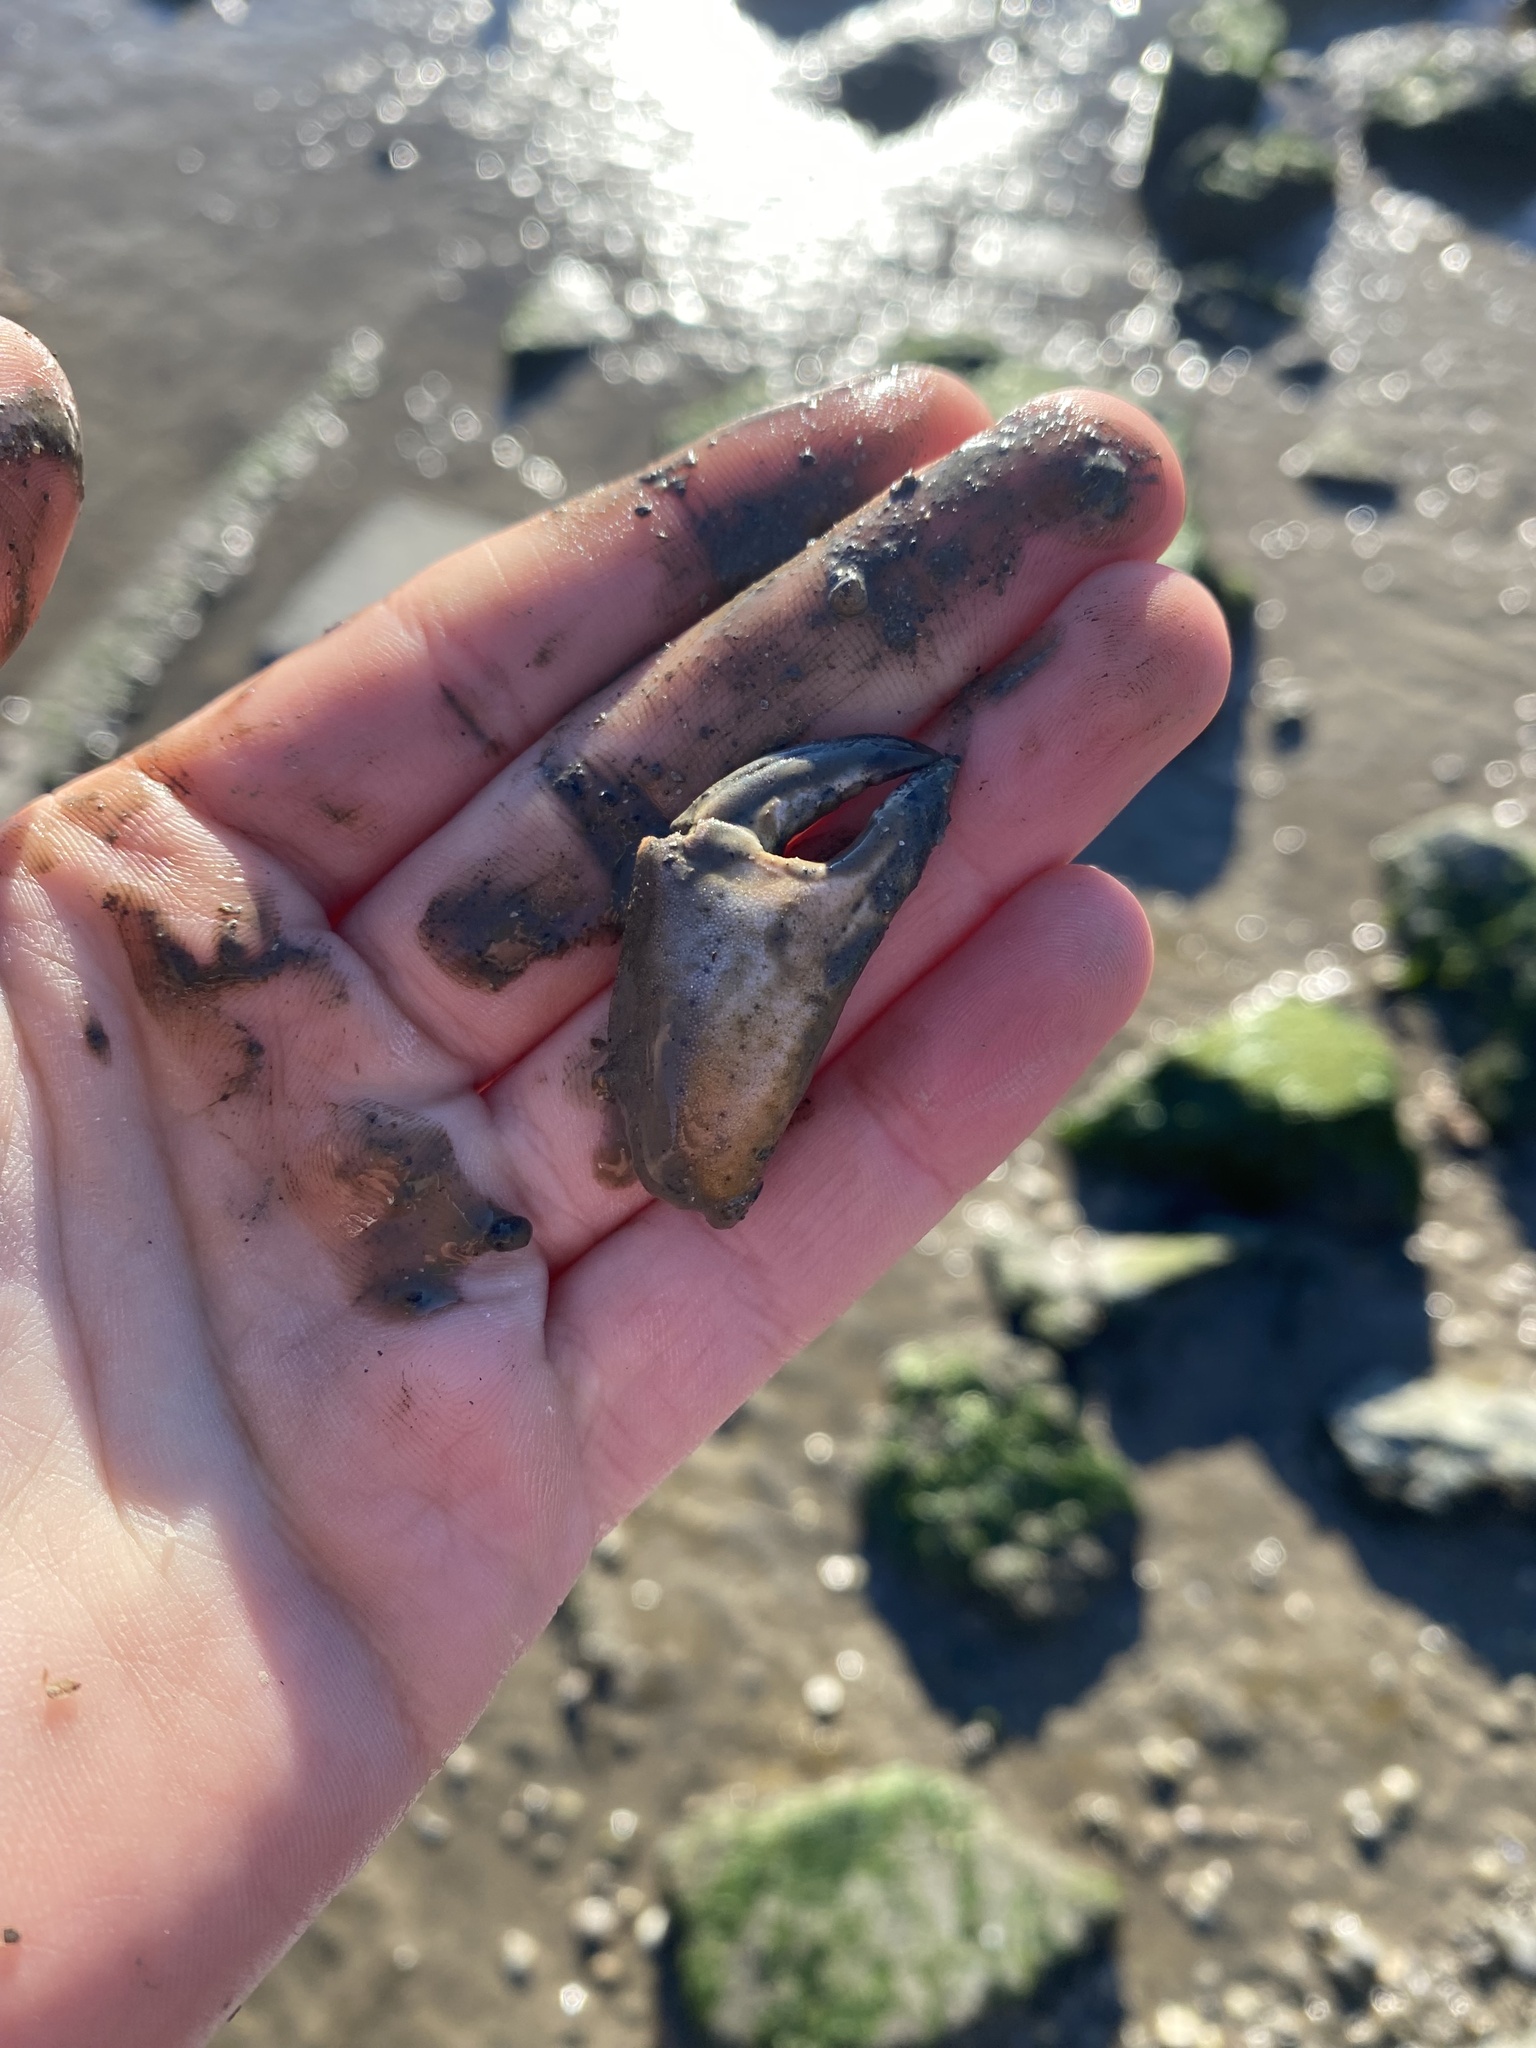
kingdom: Animalia
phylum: Arthropoda
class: Malacostraca
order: Decapoda
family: Cancridae
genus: Metacarcinus
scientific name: Metacarcinus anthonyi
